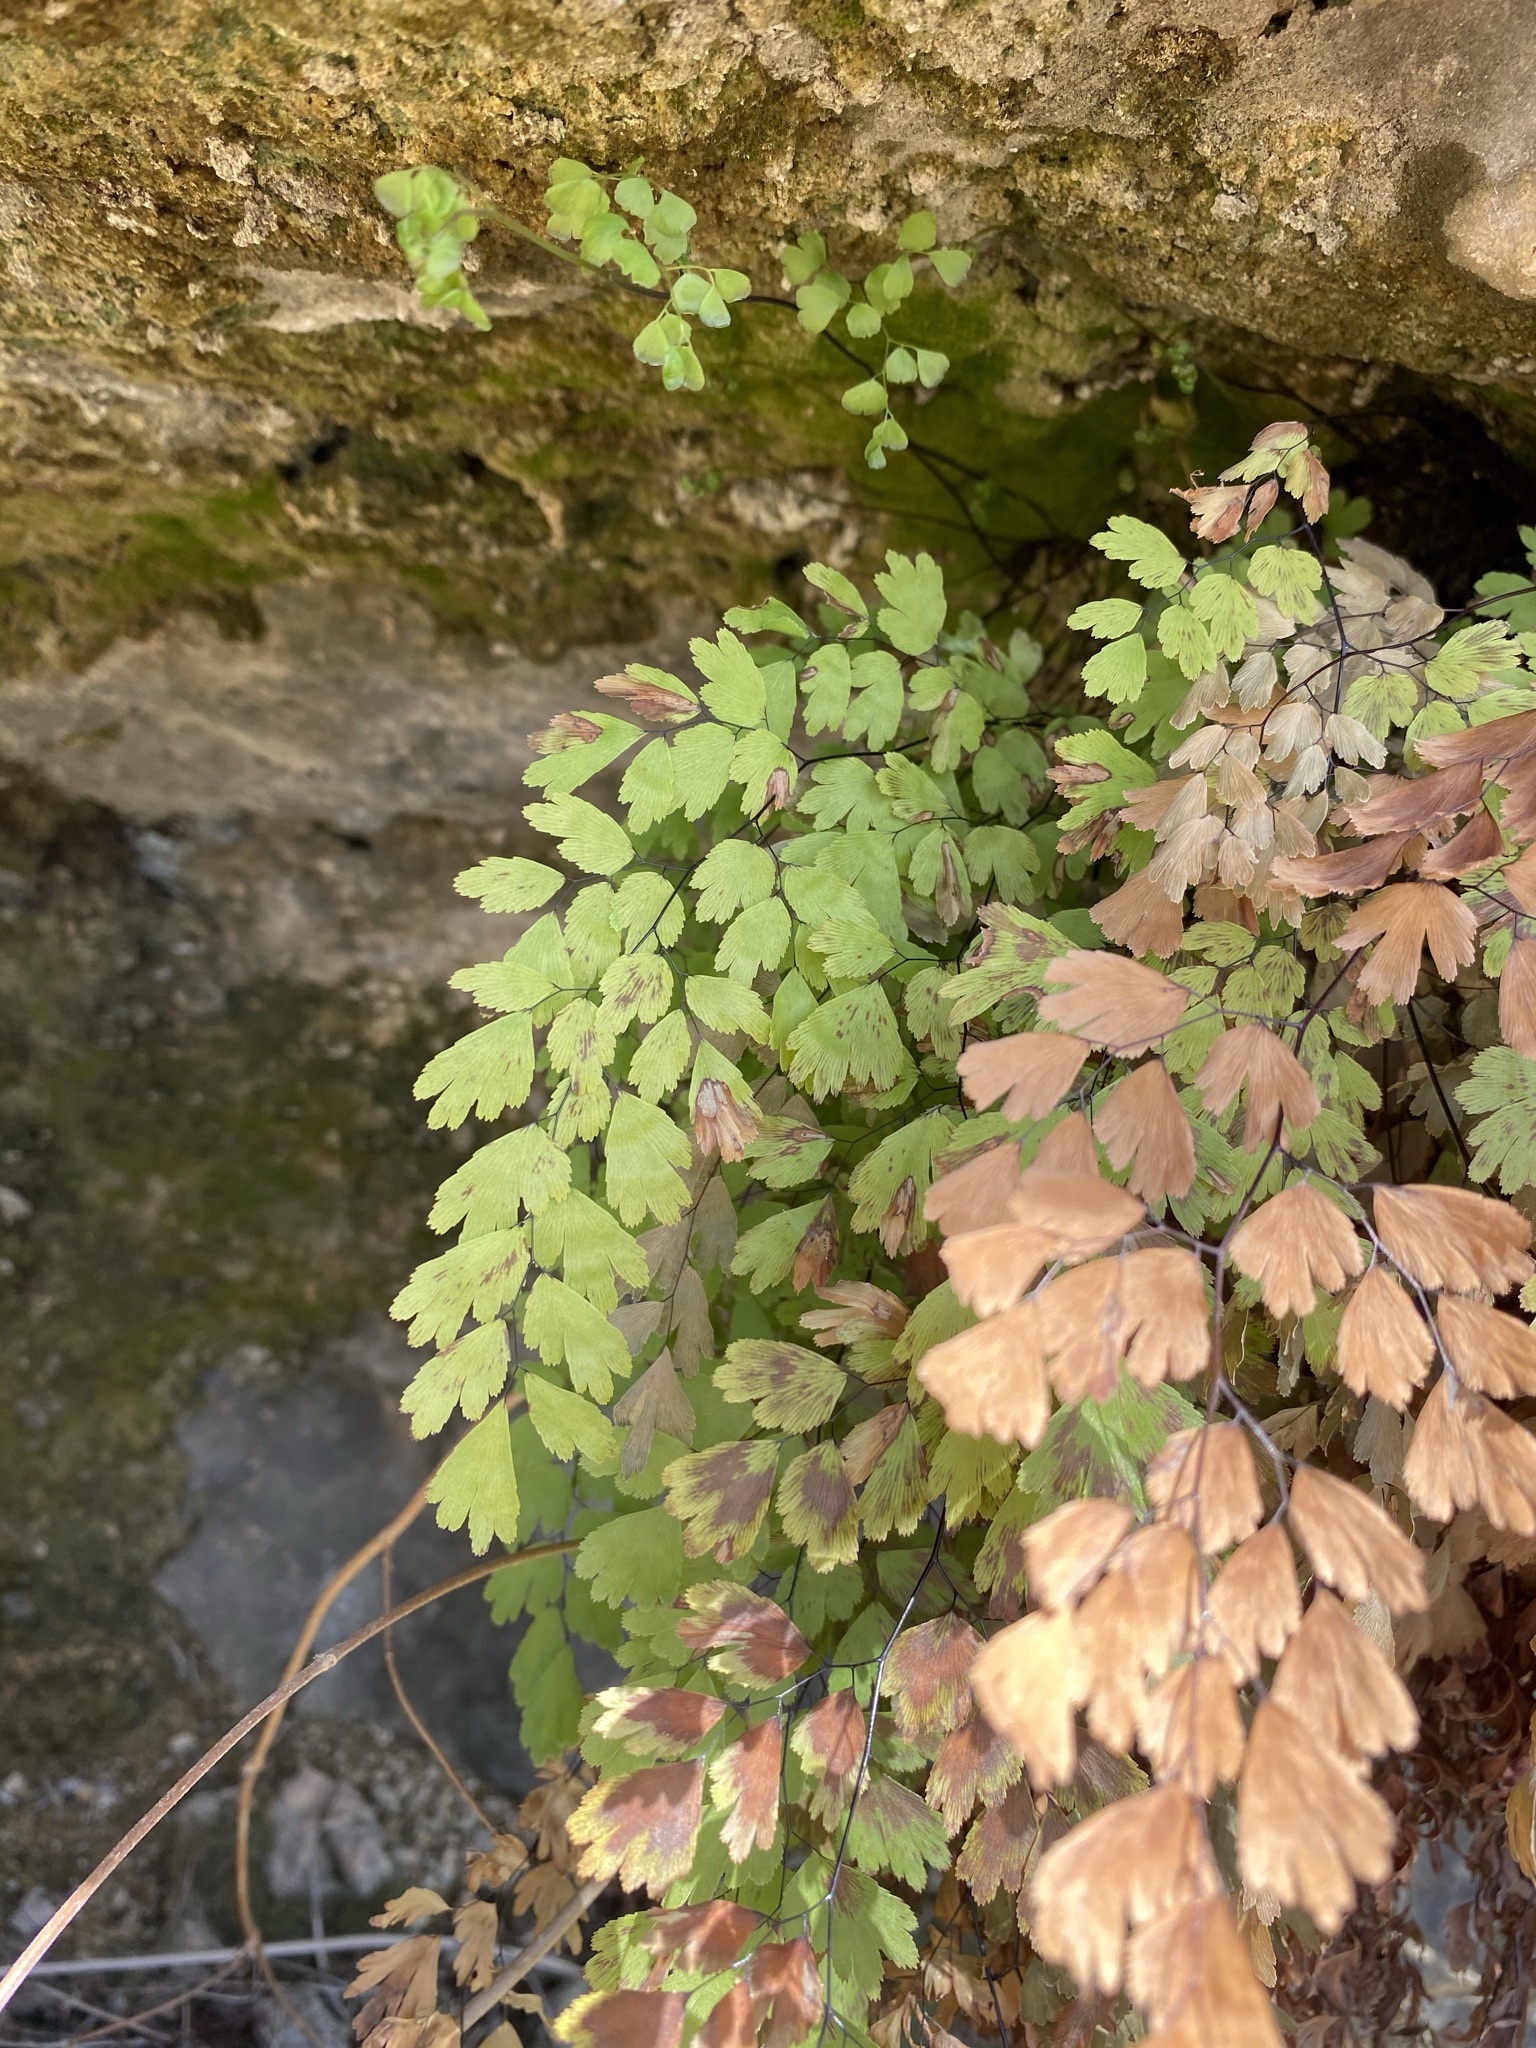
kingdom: Plantae
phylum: Tracheophyta
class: Polypodiopsida
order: Polypodiales
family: Pteridaceae
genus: Adiantum
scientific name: Adiantum capillus-veneris
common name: Maidenhair fern
